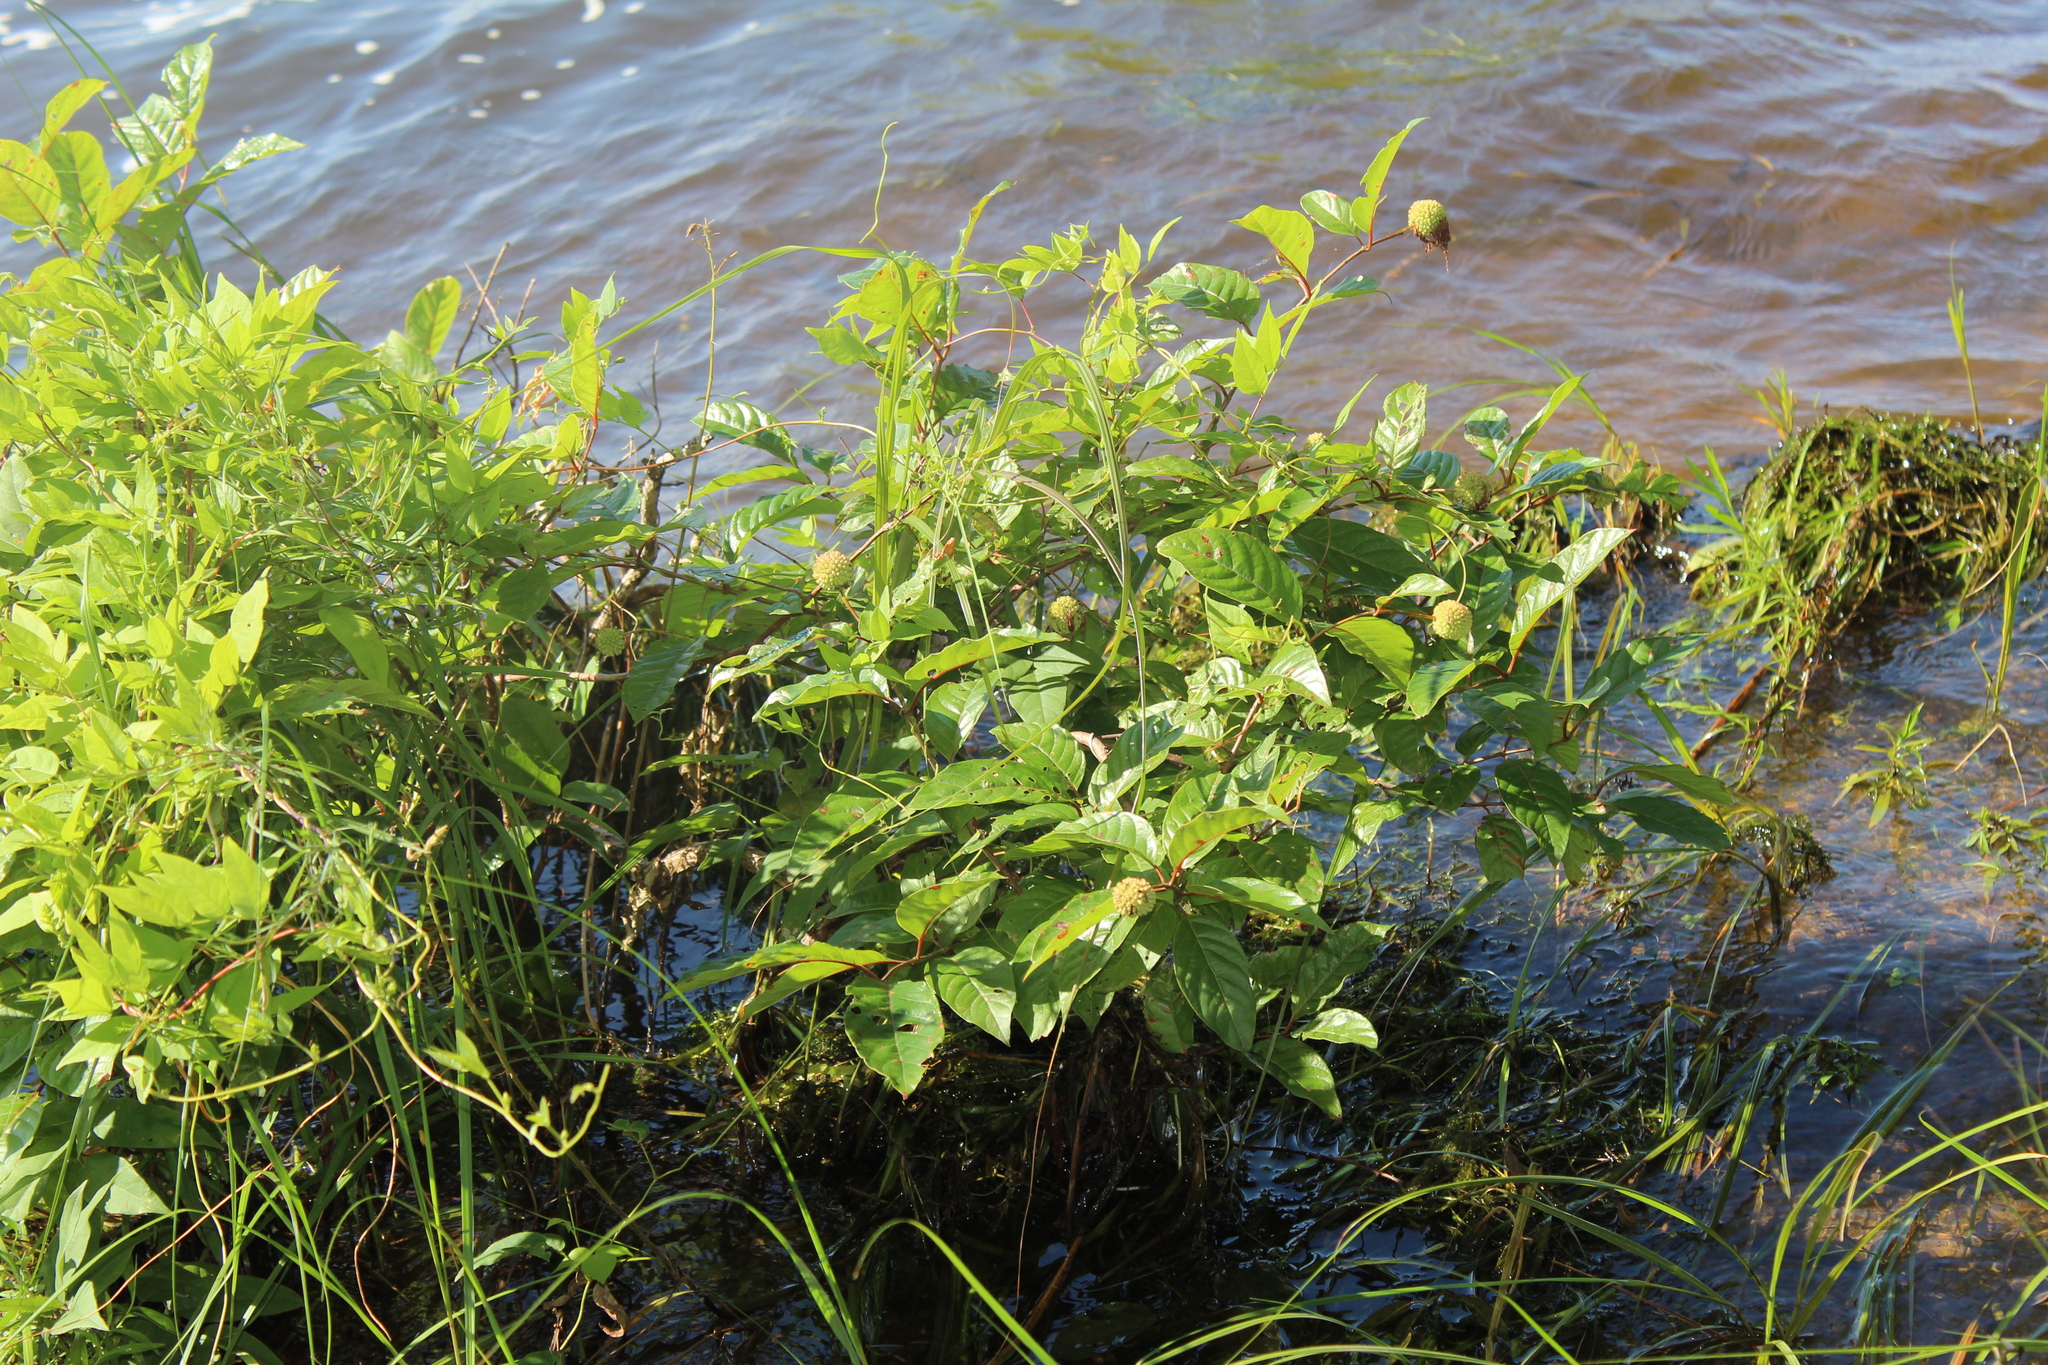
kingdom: Plantae
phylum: Tracheophyta
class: Magnoliopsida
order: Gentianales
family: Rubiaceae
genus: Cephalanthus
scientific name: Cephalanthus occidentalis
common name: Button-willow
